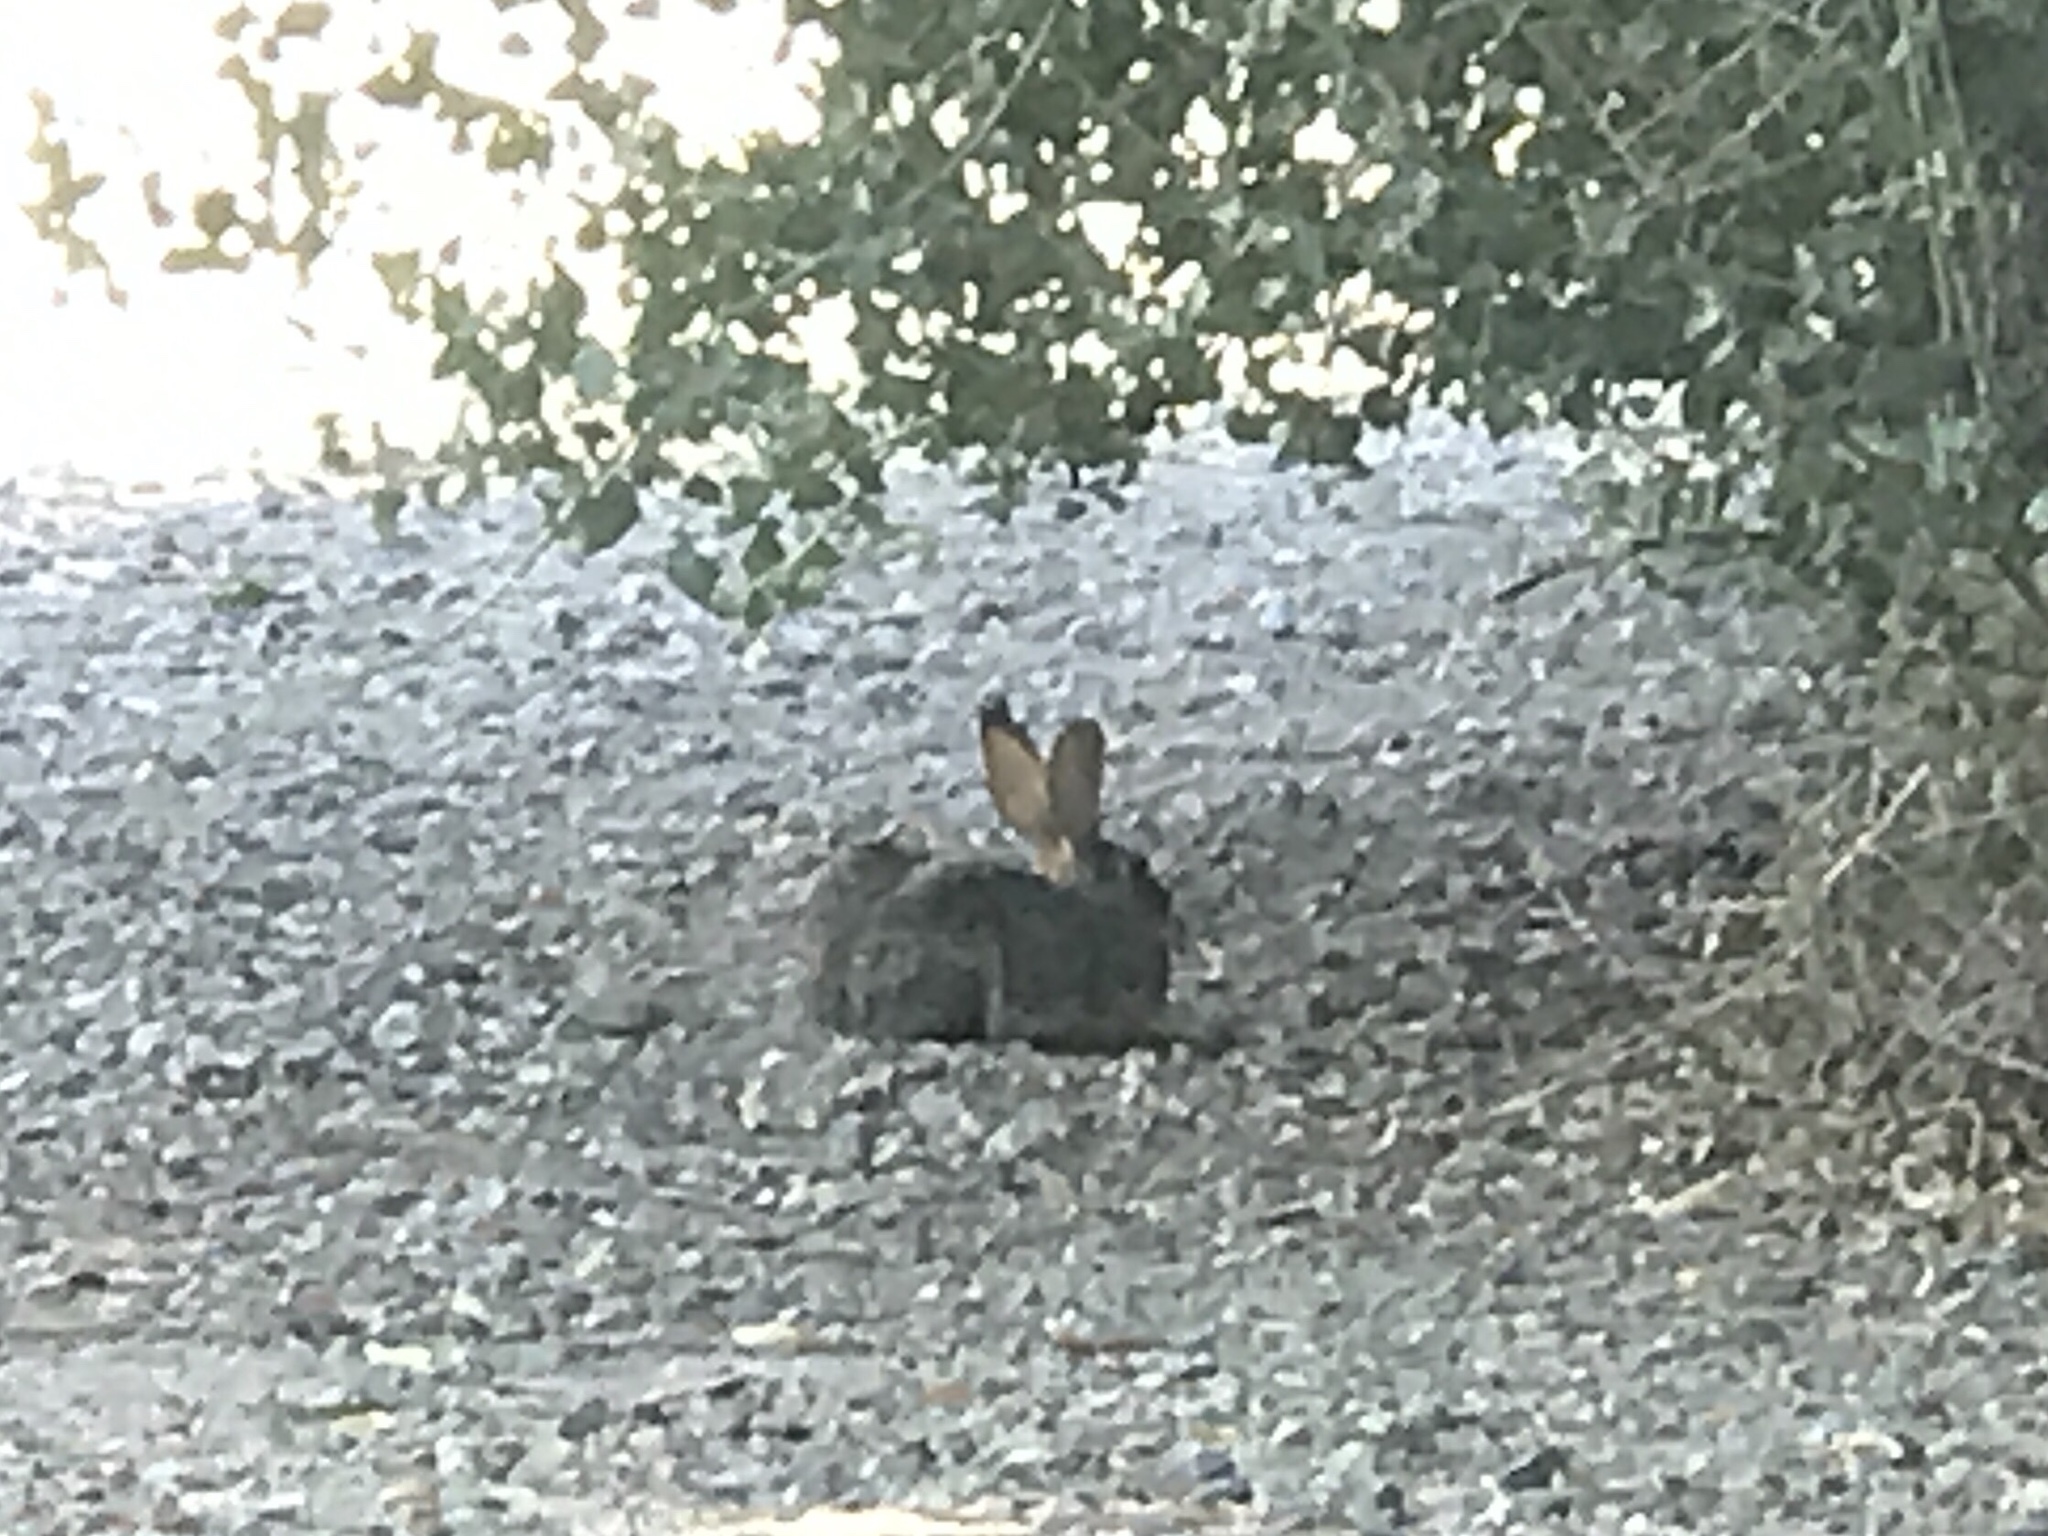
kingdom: Animalia
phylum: Chordata
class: Mammalia
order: Lagomorpha
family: Leporidae
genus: Sylvilagus
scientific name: Sylvilagus audubonii
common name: Desert cottontail
